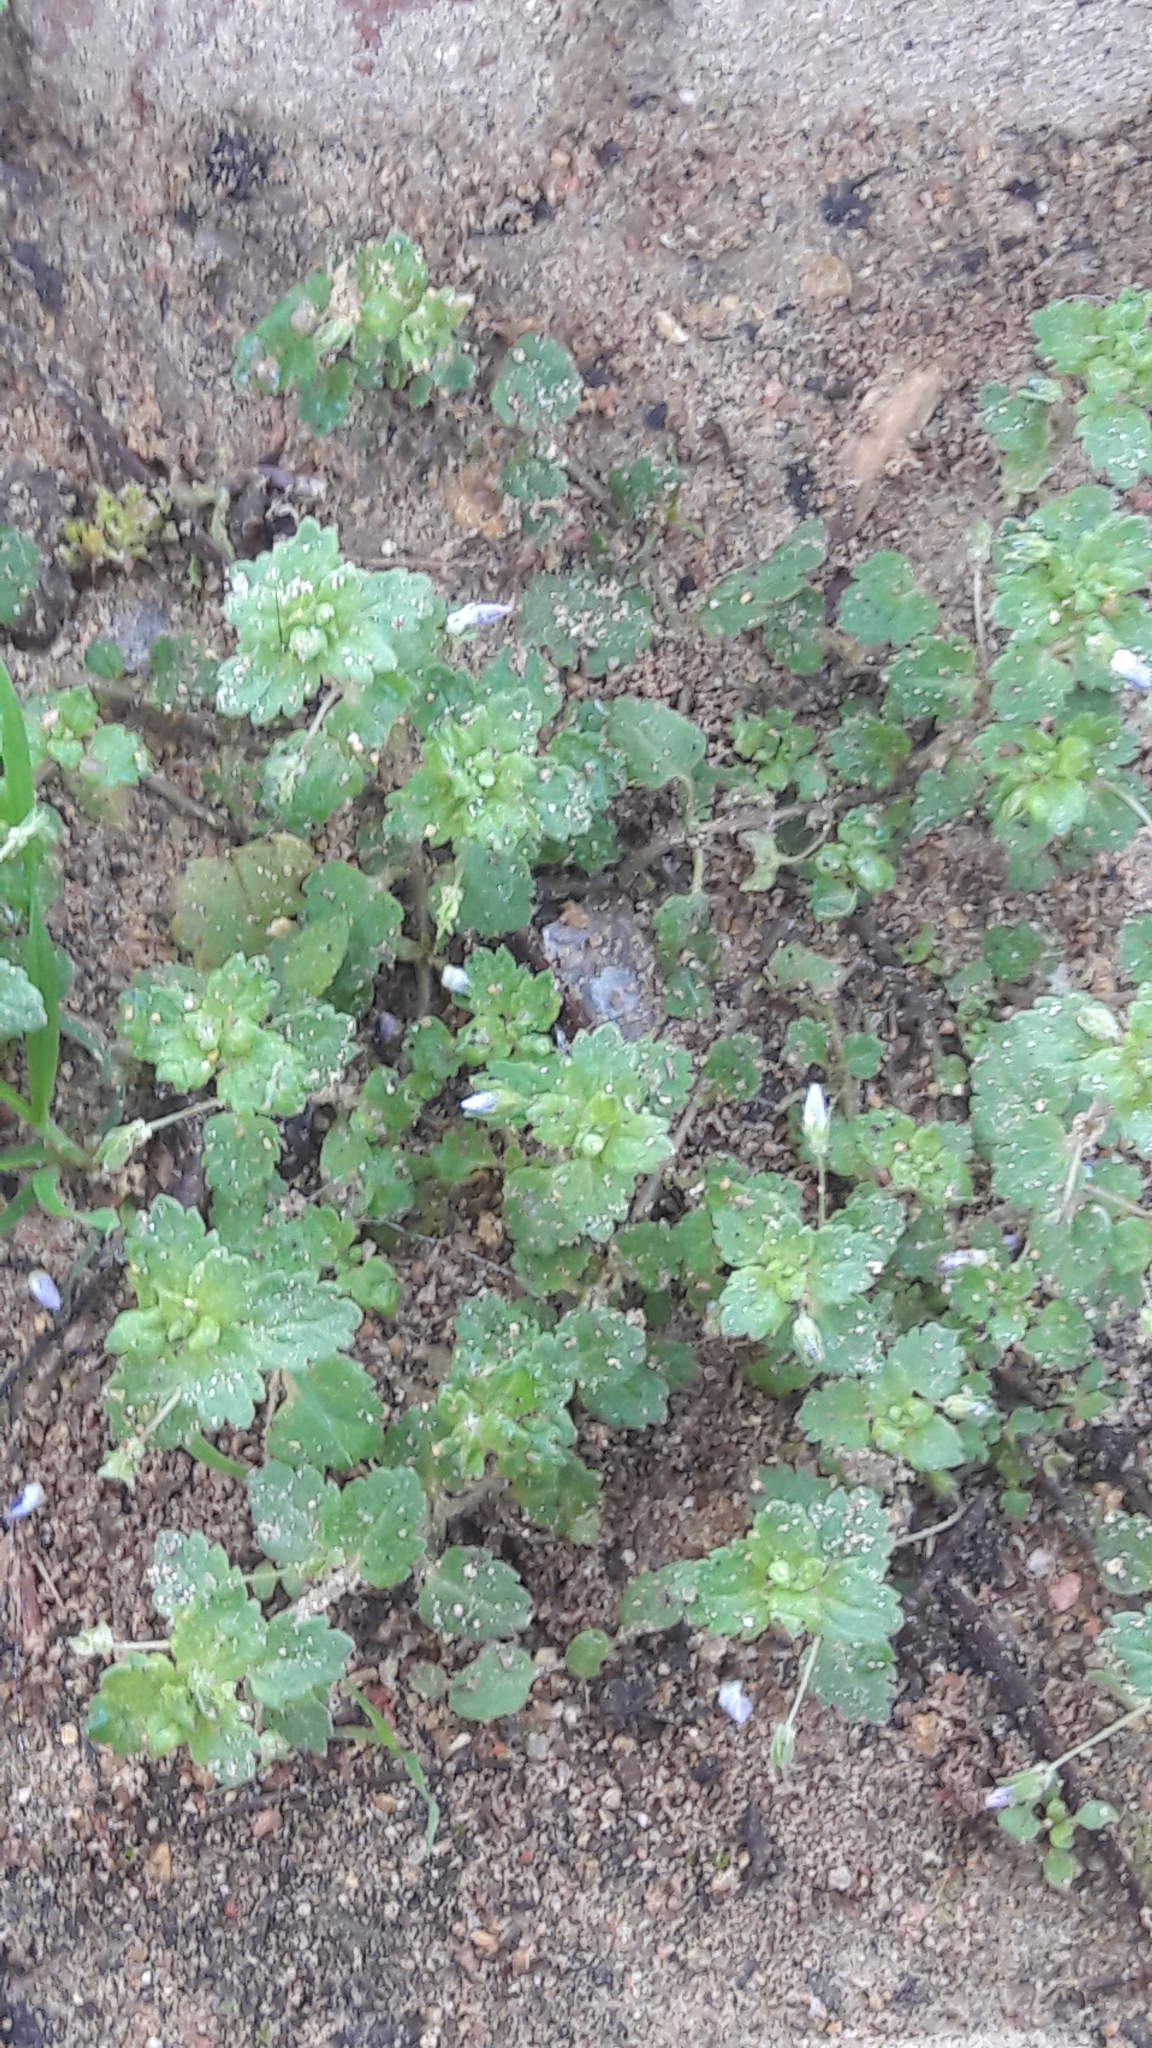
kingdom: Plantae
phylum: Tracheophyta
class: Magnoliopsida
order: Lamiales
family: Plantaginaceae
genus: Veronica
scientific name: Veronica persica
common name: Common field-speedwell
